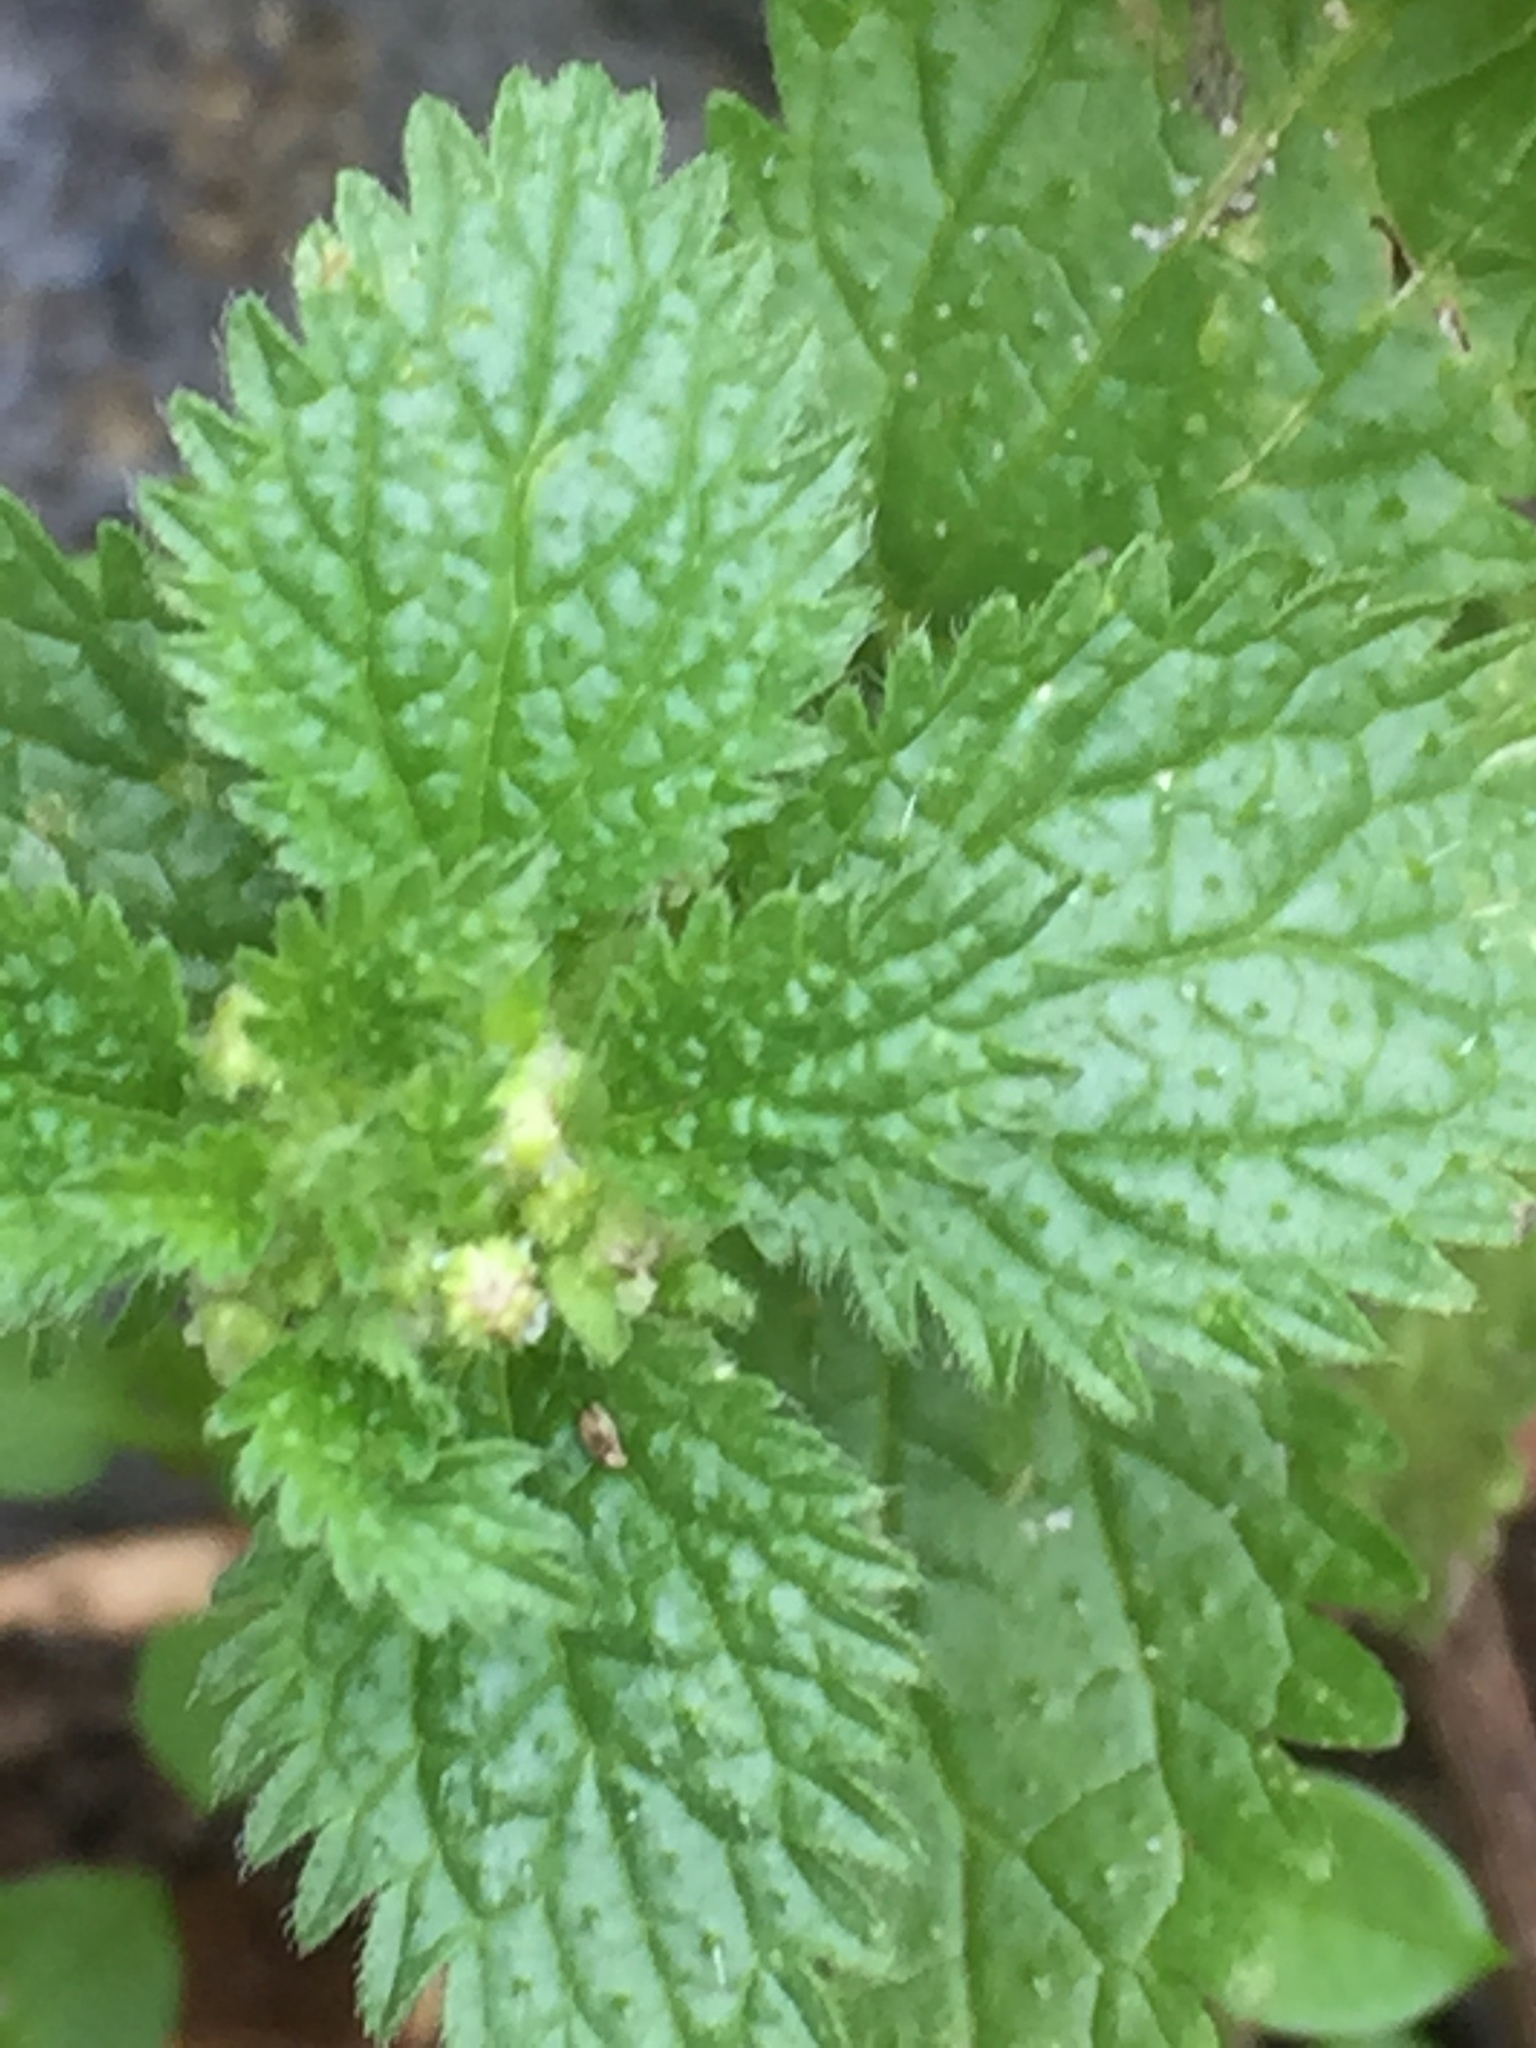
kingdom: Plantae
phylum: Tracheophyta
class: Magnoliopsida
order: Rosales
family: Urticaceae
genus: Urtica
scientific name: Urtica urens
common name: Dwarf nettle
